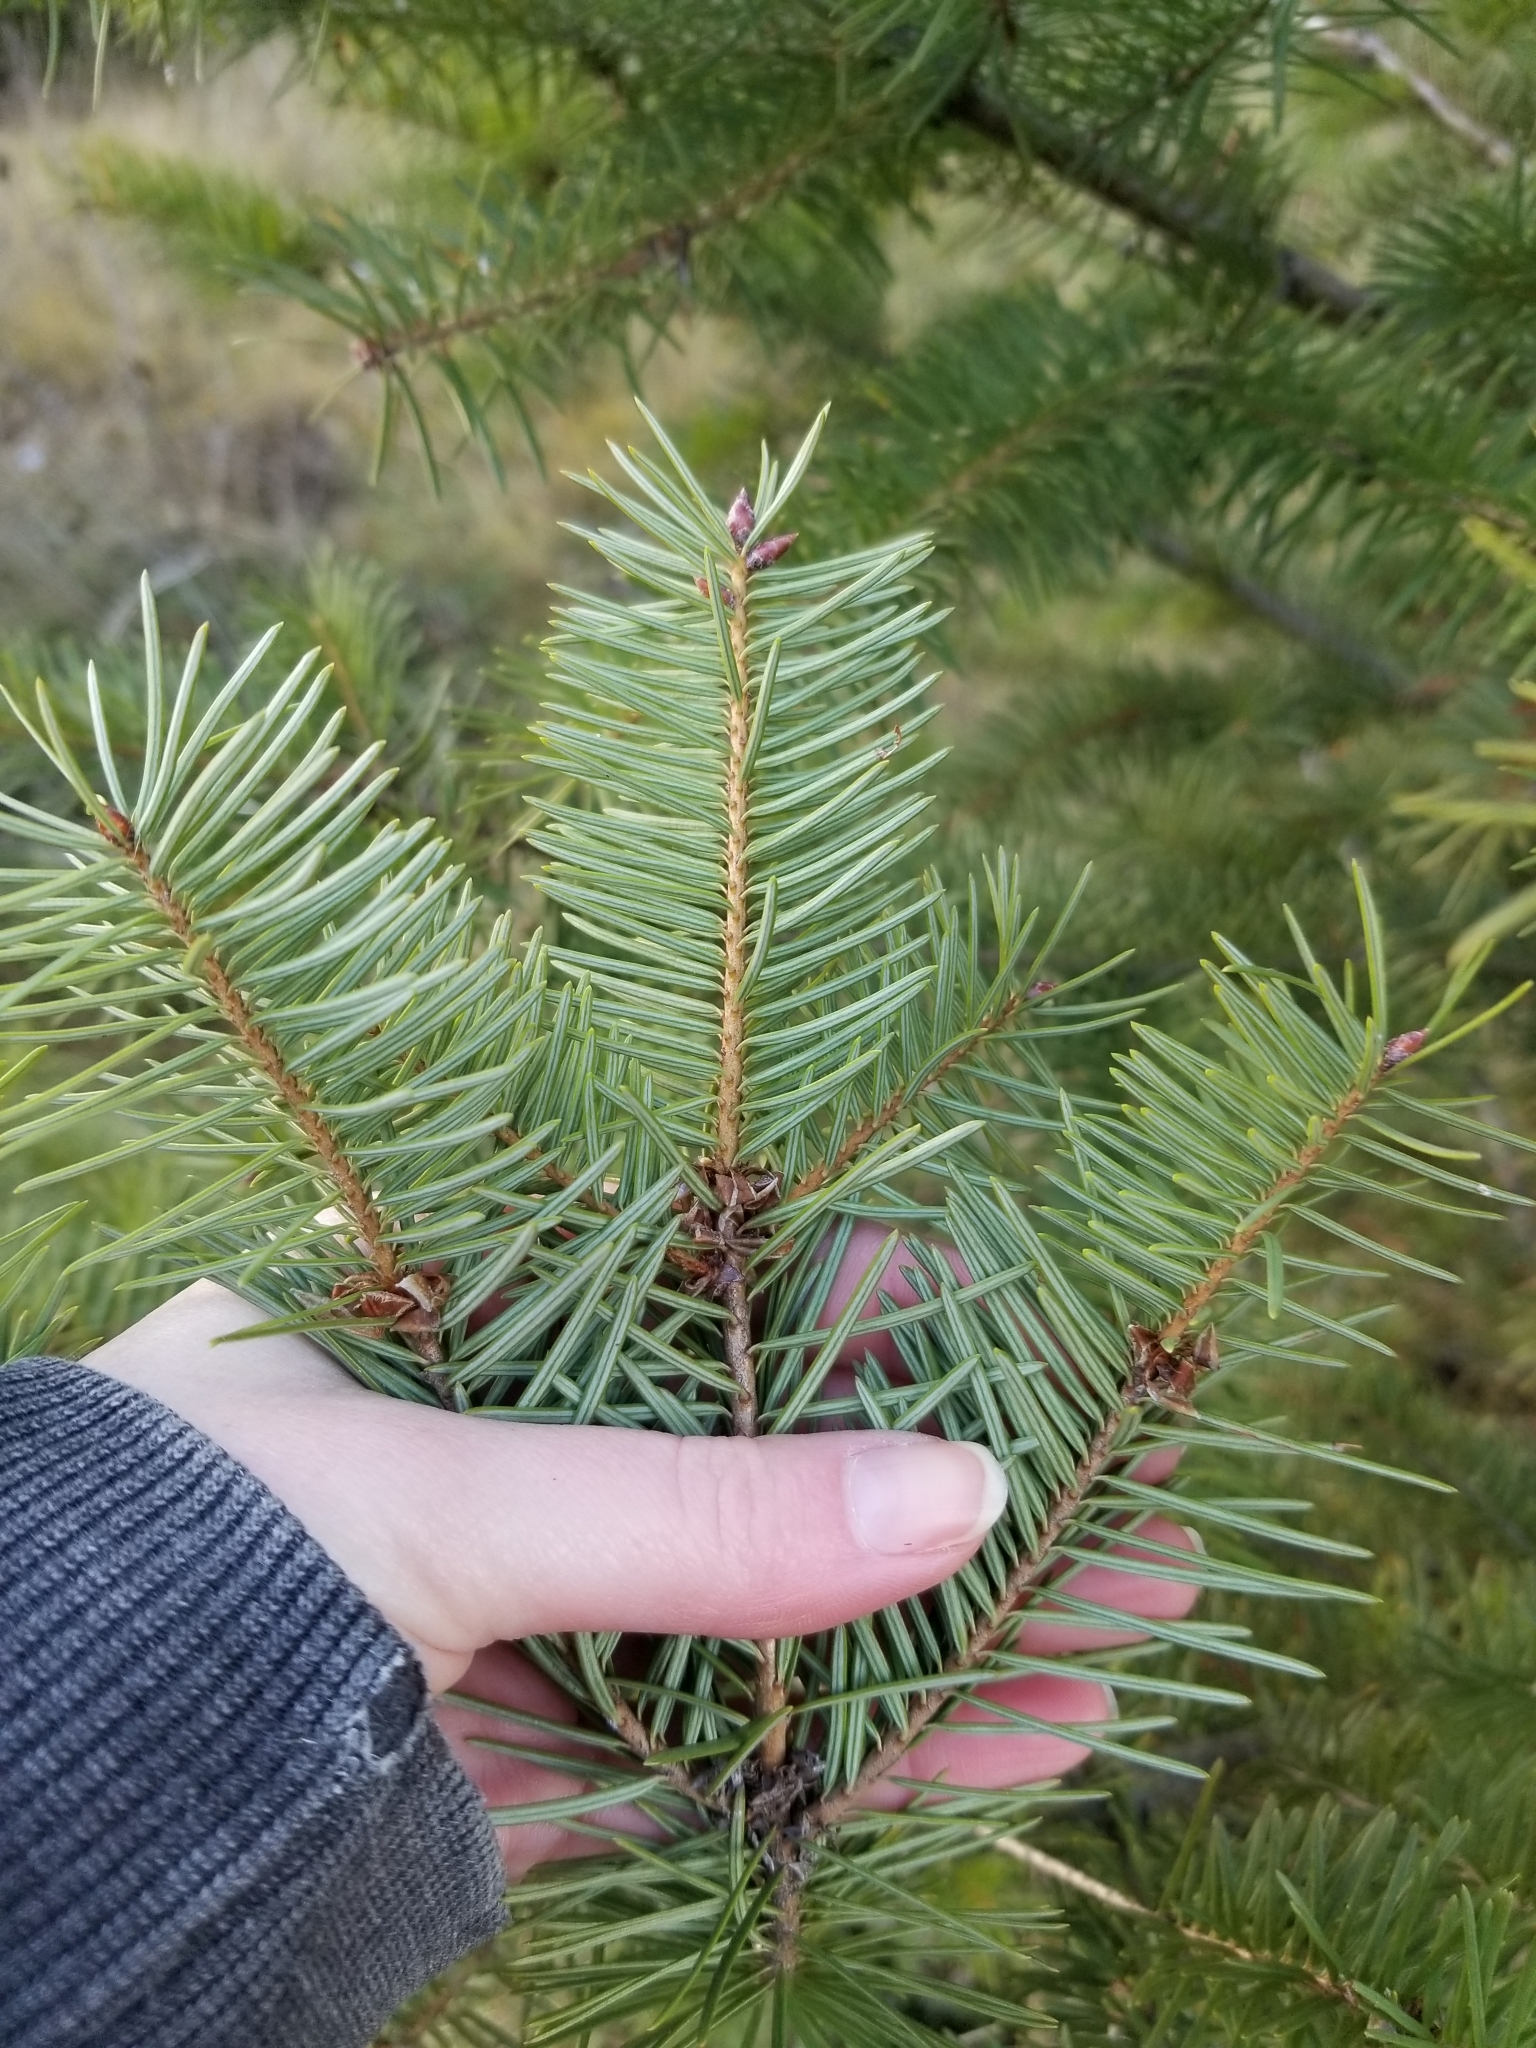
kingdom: Plantae
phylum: Tracheophyta
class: Pinopsida
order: Pinales
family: Pinaceae
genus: Pseudotsuga
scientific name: Pseudotsuga menziesii
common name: Douglas fir
